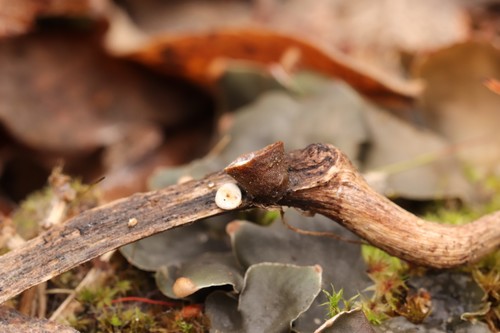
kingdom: Fungi
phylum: Basidiomycota
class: Agaricomycetes
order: Agaricales
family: Nidulariaceae
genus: Crucibulum
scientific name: Crucibulum laeve
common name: Common bird's nest
